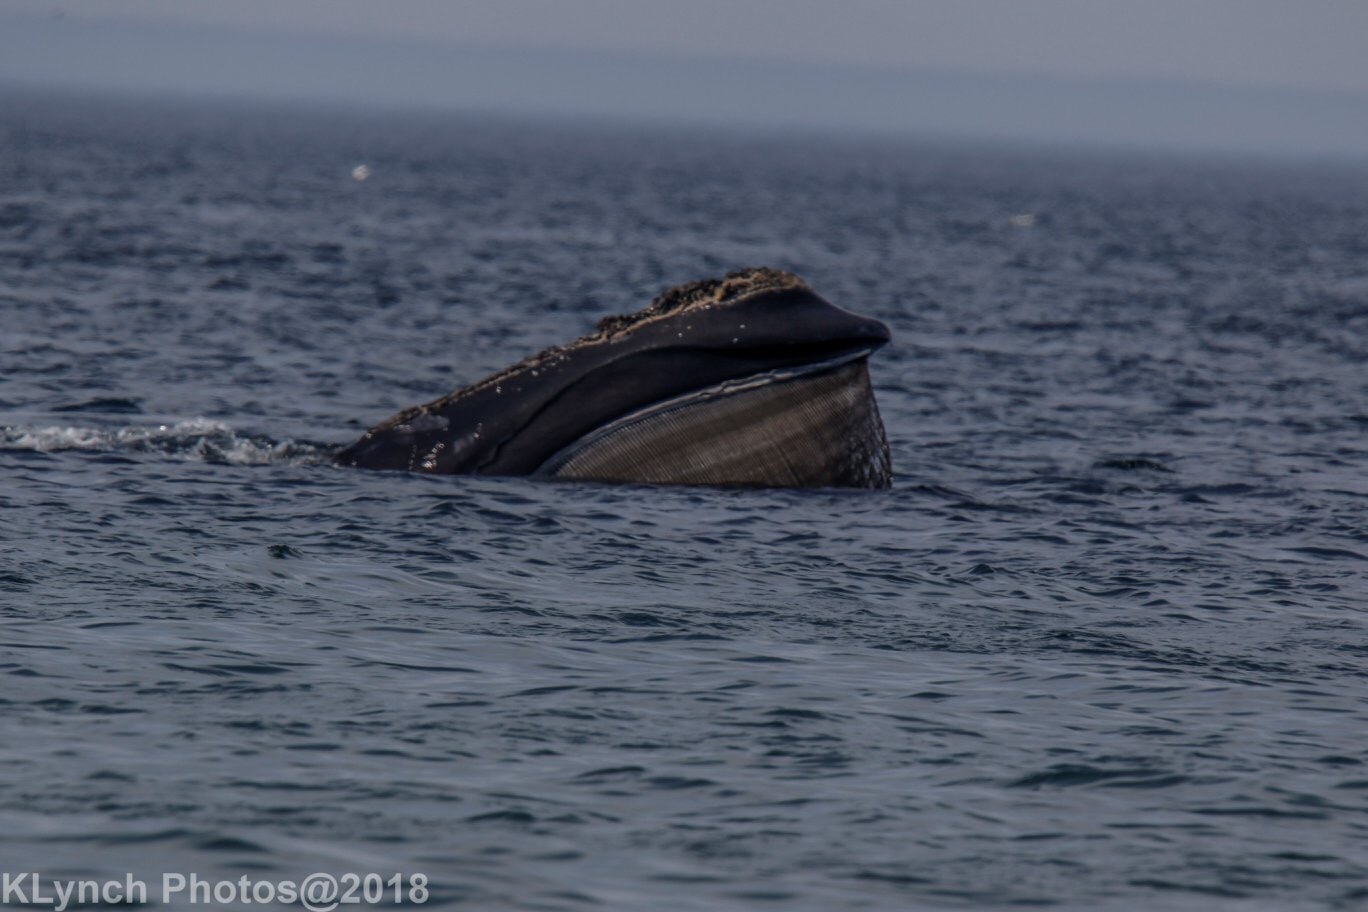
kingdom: Animalia
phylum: Chordata
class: Mammalia
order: Cetacea
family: Balaenidae
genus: Eubalaena
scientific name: Eubalaena glacialis
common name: North atlantic right whale
